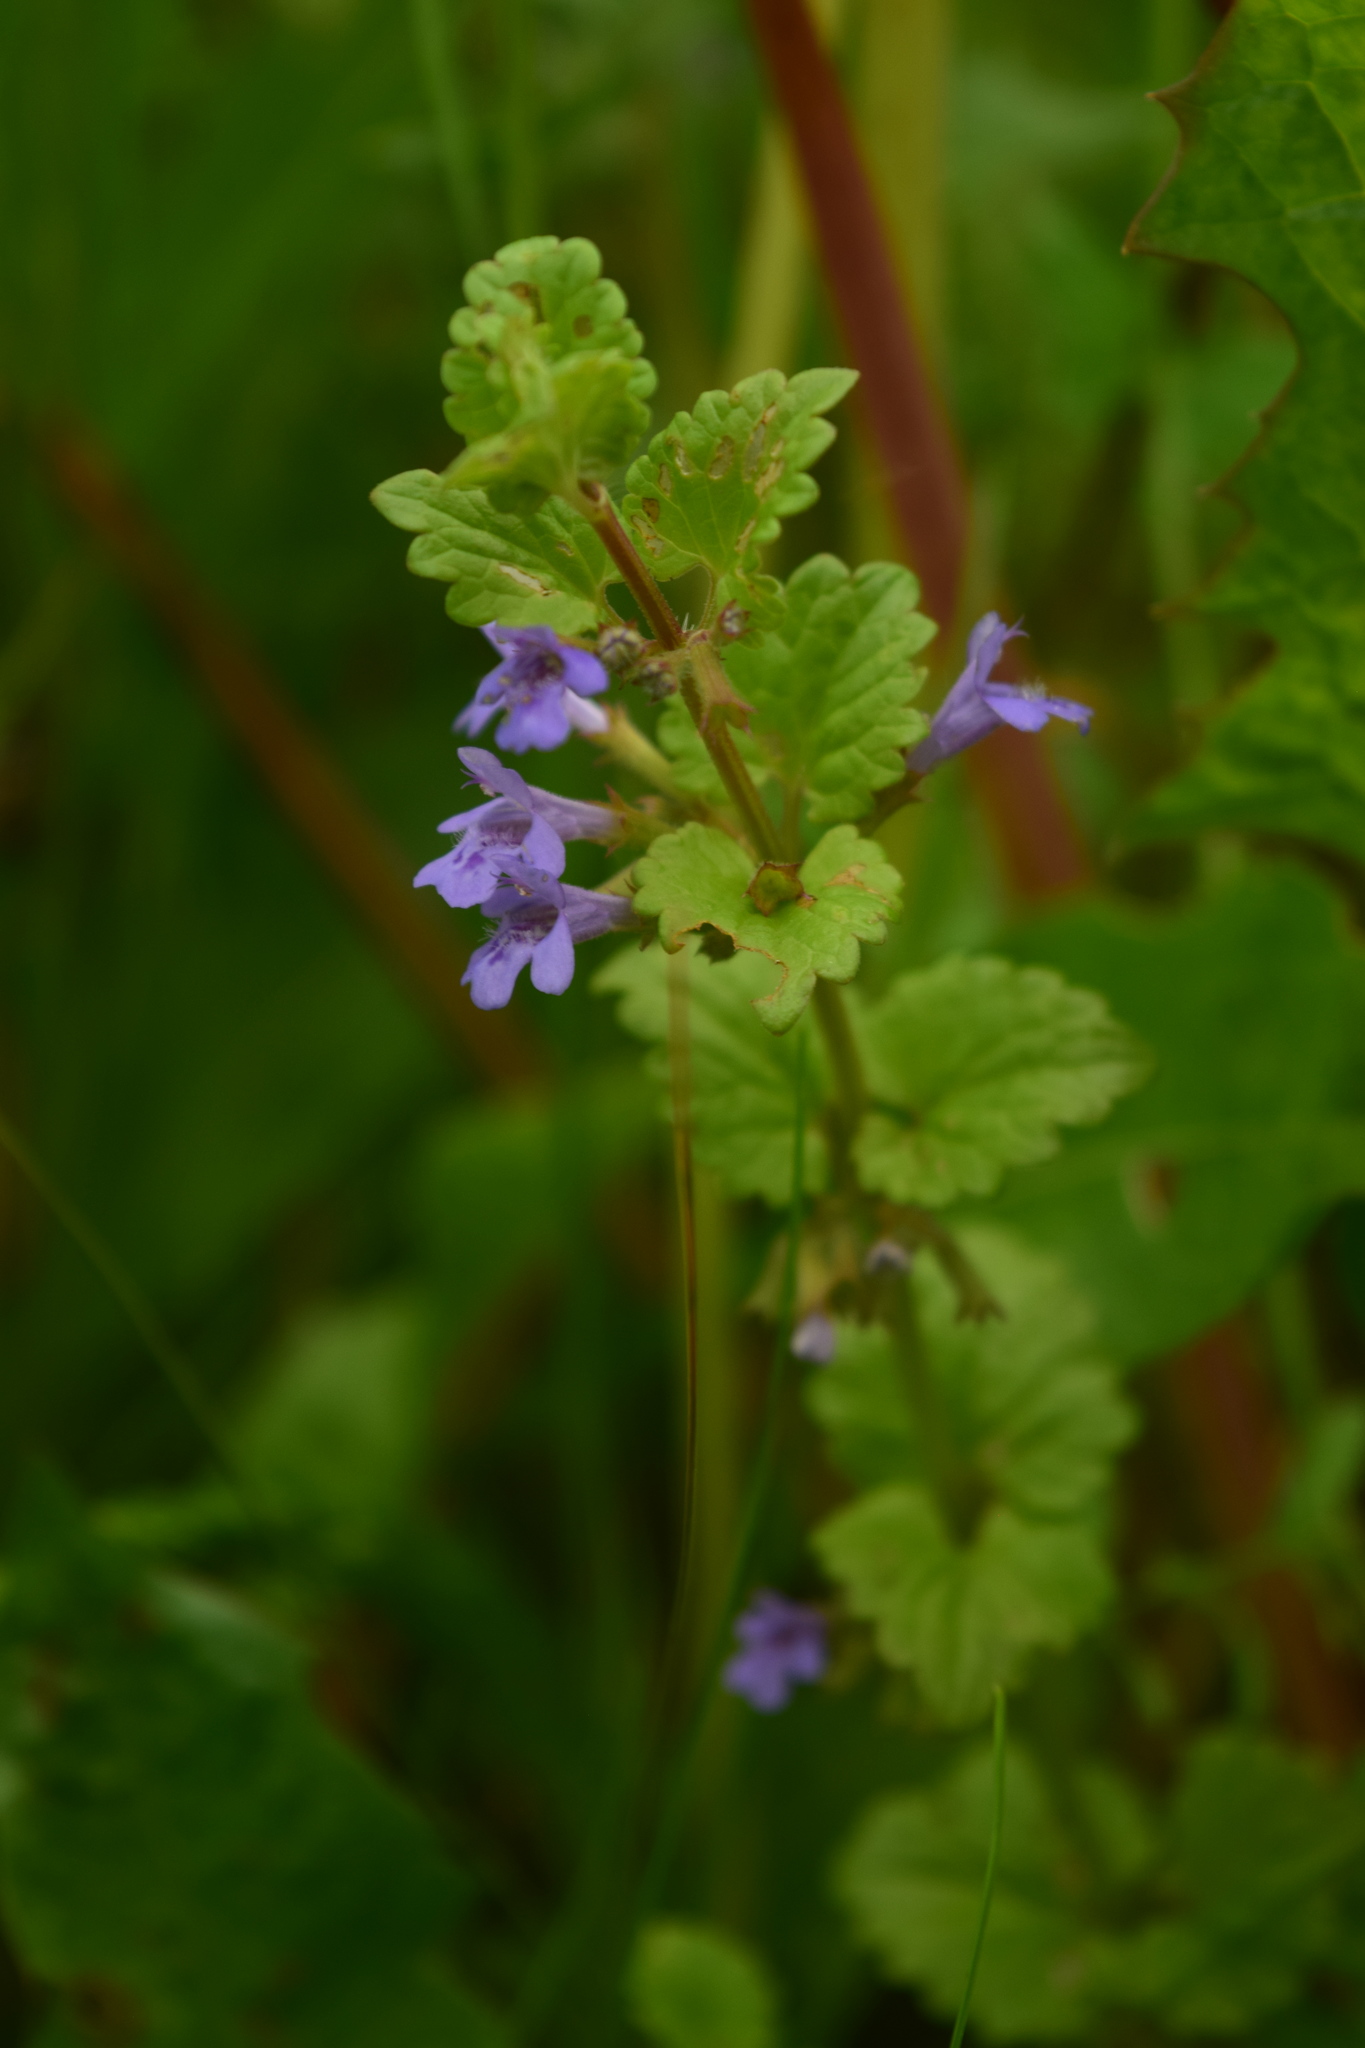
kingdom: Plantae
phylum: Tracheophyta
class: Magnoliopsida
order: Lamiales
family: Lamiaceae
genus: Glechoma
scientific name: Glechoma hederacea
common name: Ground ivy
